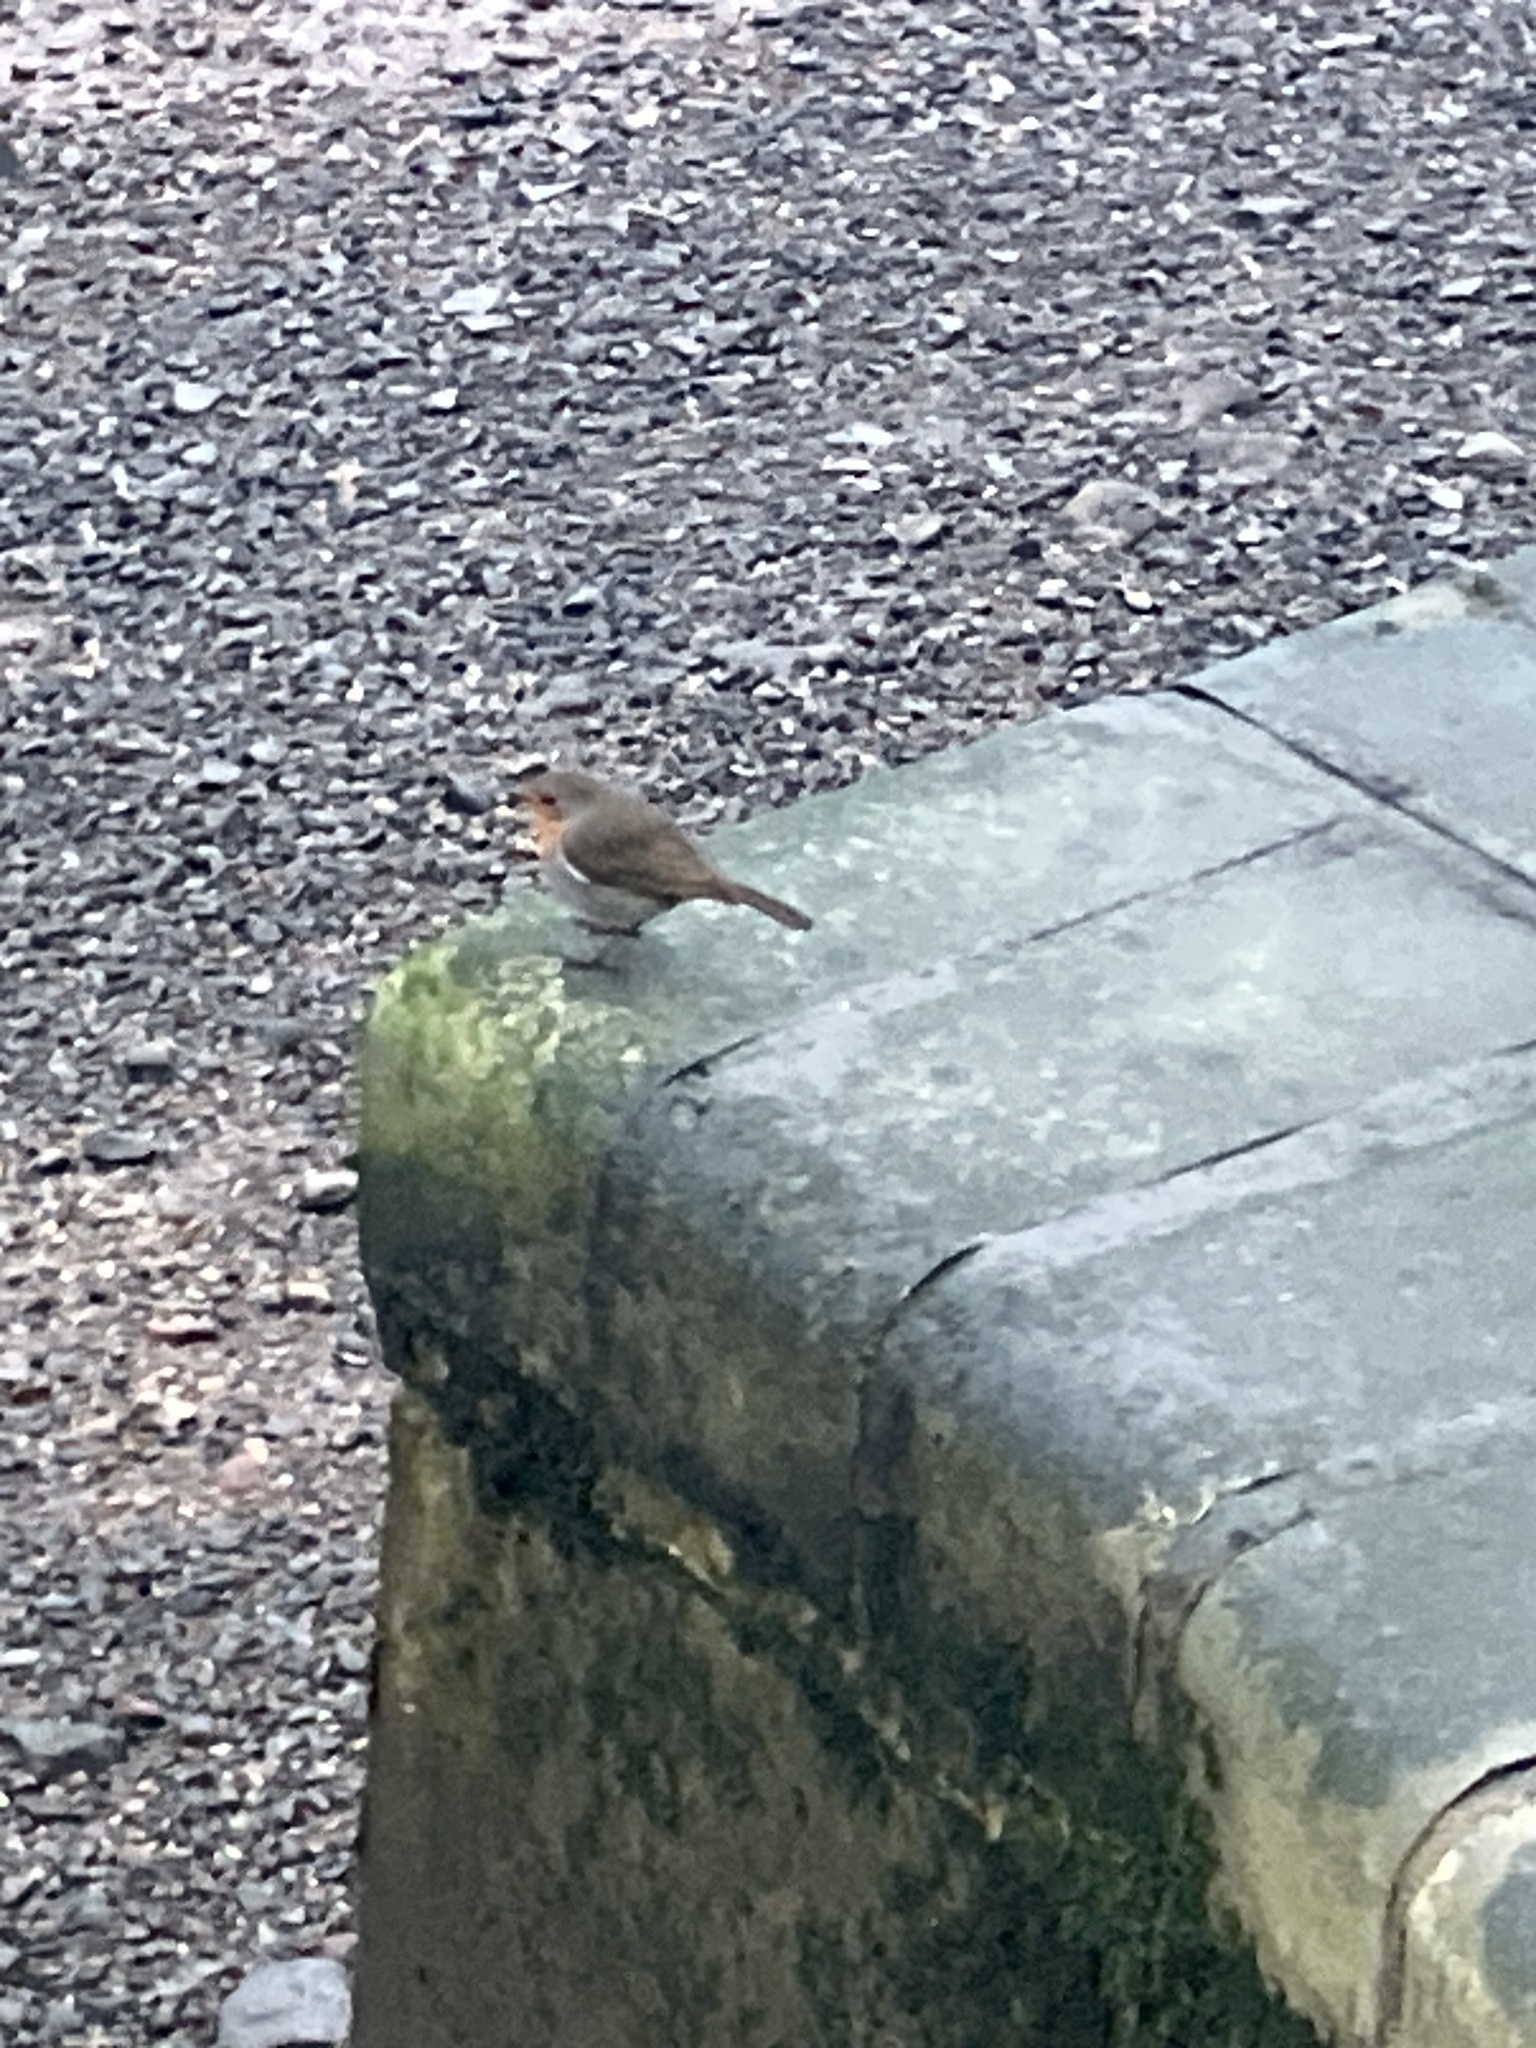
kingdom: Animalia
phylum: Chordata
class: Aves
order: Passeriformes
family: Muscicapidae
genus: Erithacus
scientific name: Erithacus rubecula
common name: European robin
